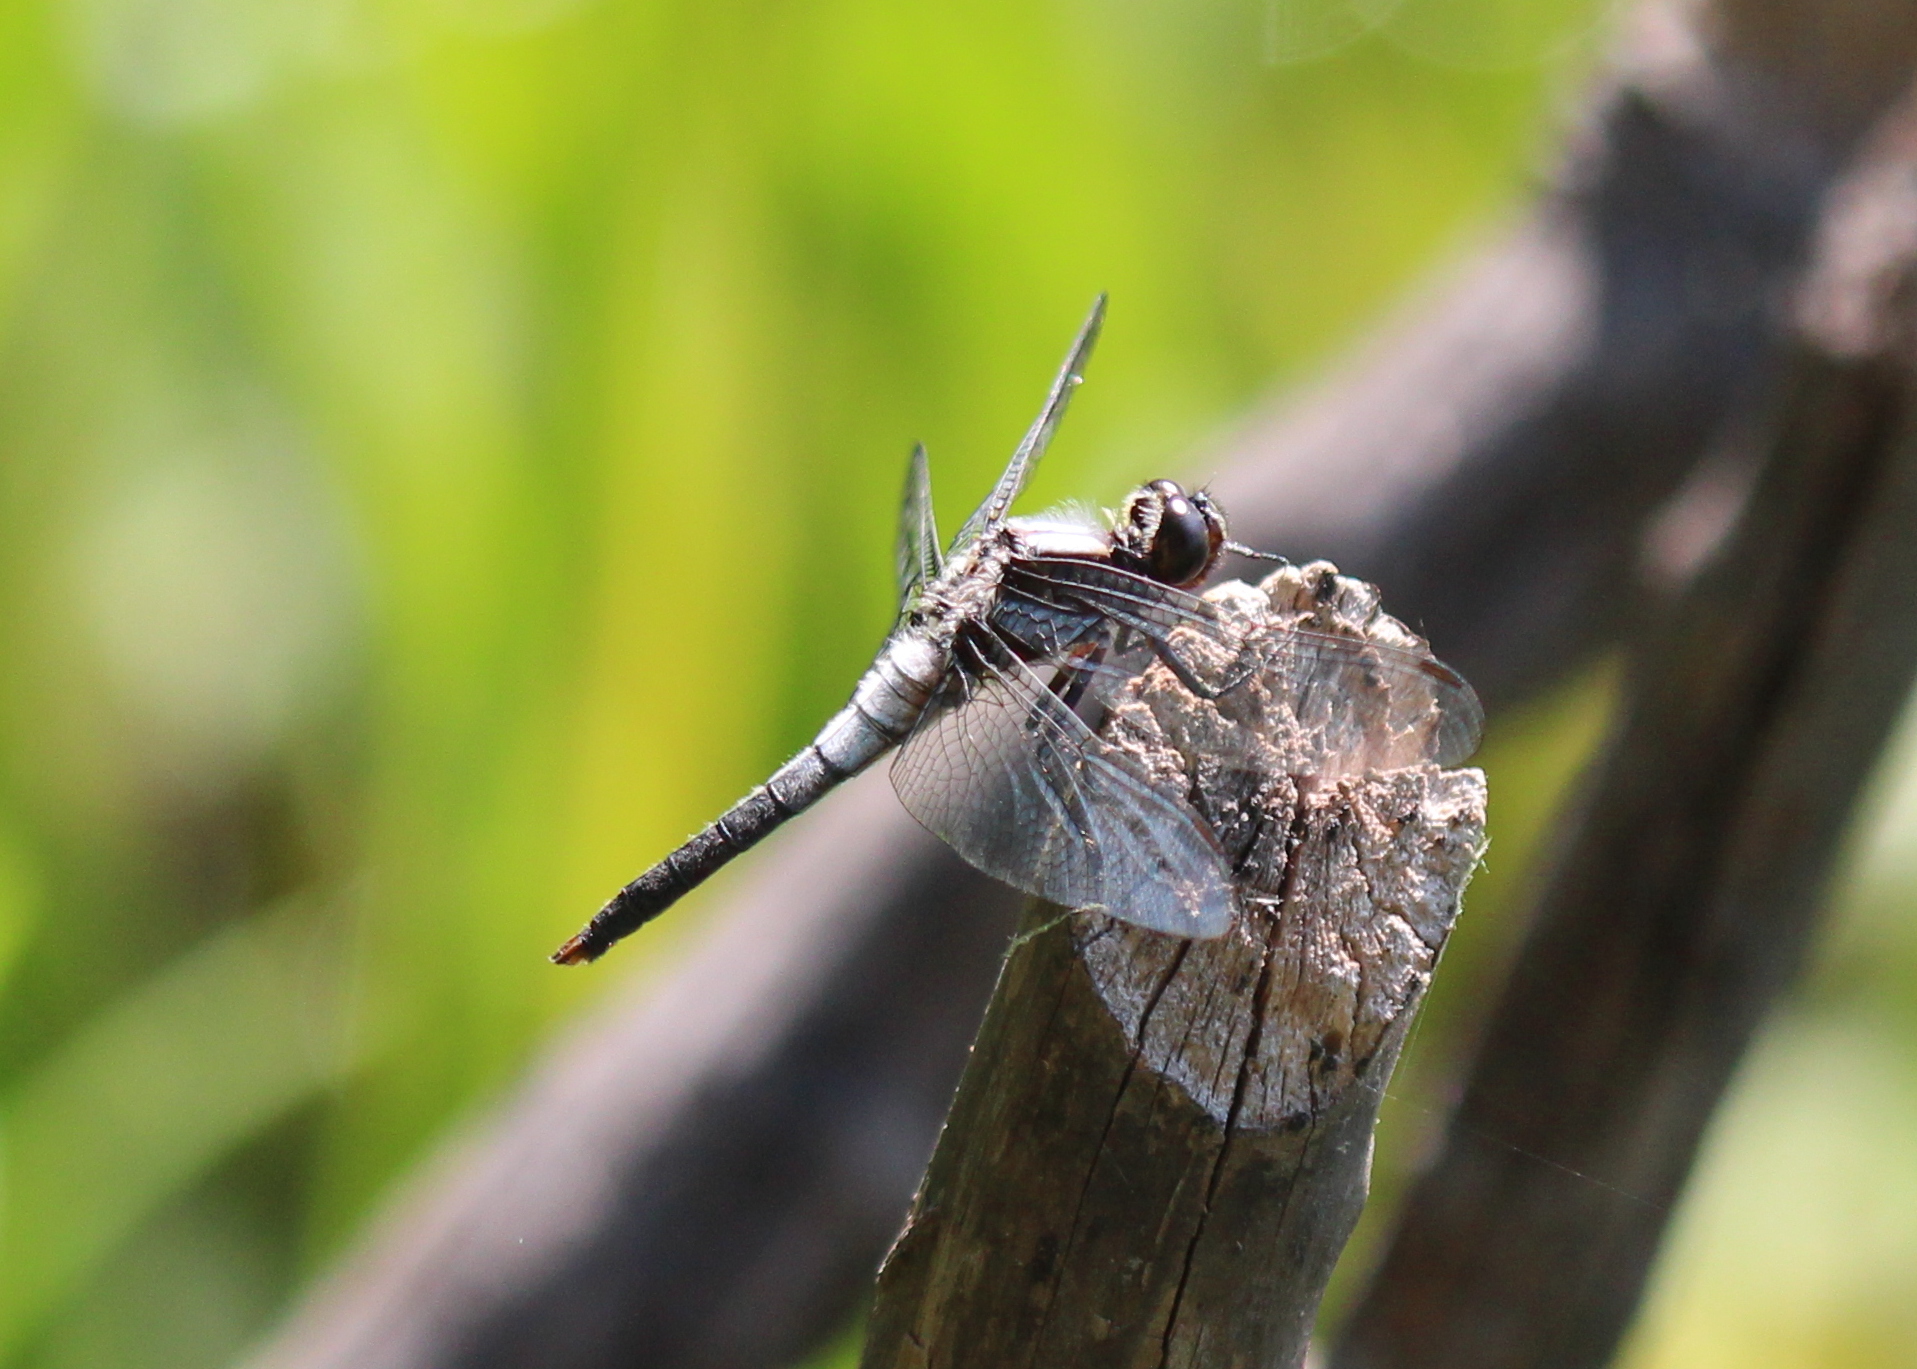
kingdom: Animalia
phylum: Arthropoda
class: Insecta
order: Odonata
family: Libellulidae
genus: Ladona
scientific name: Ladona julia
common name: Chalk-fronted corporal
